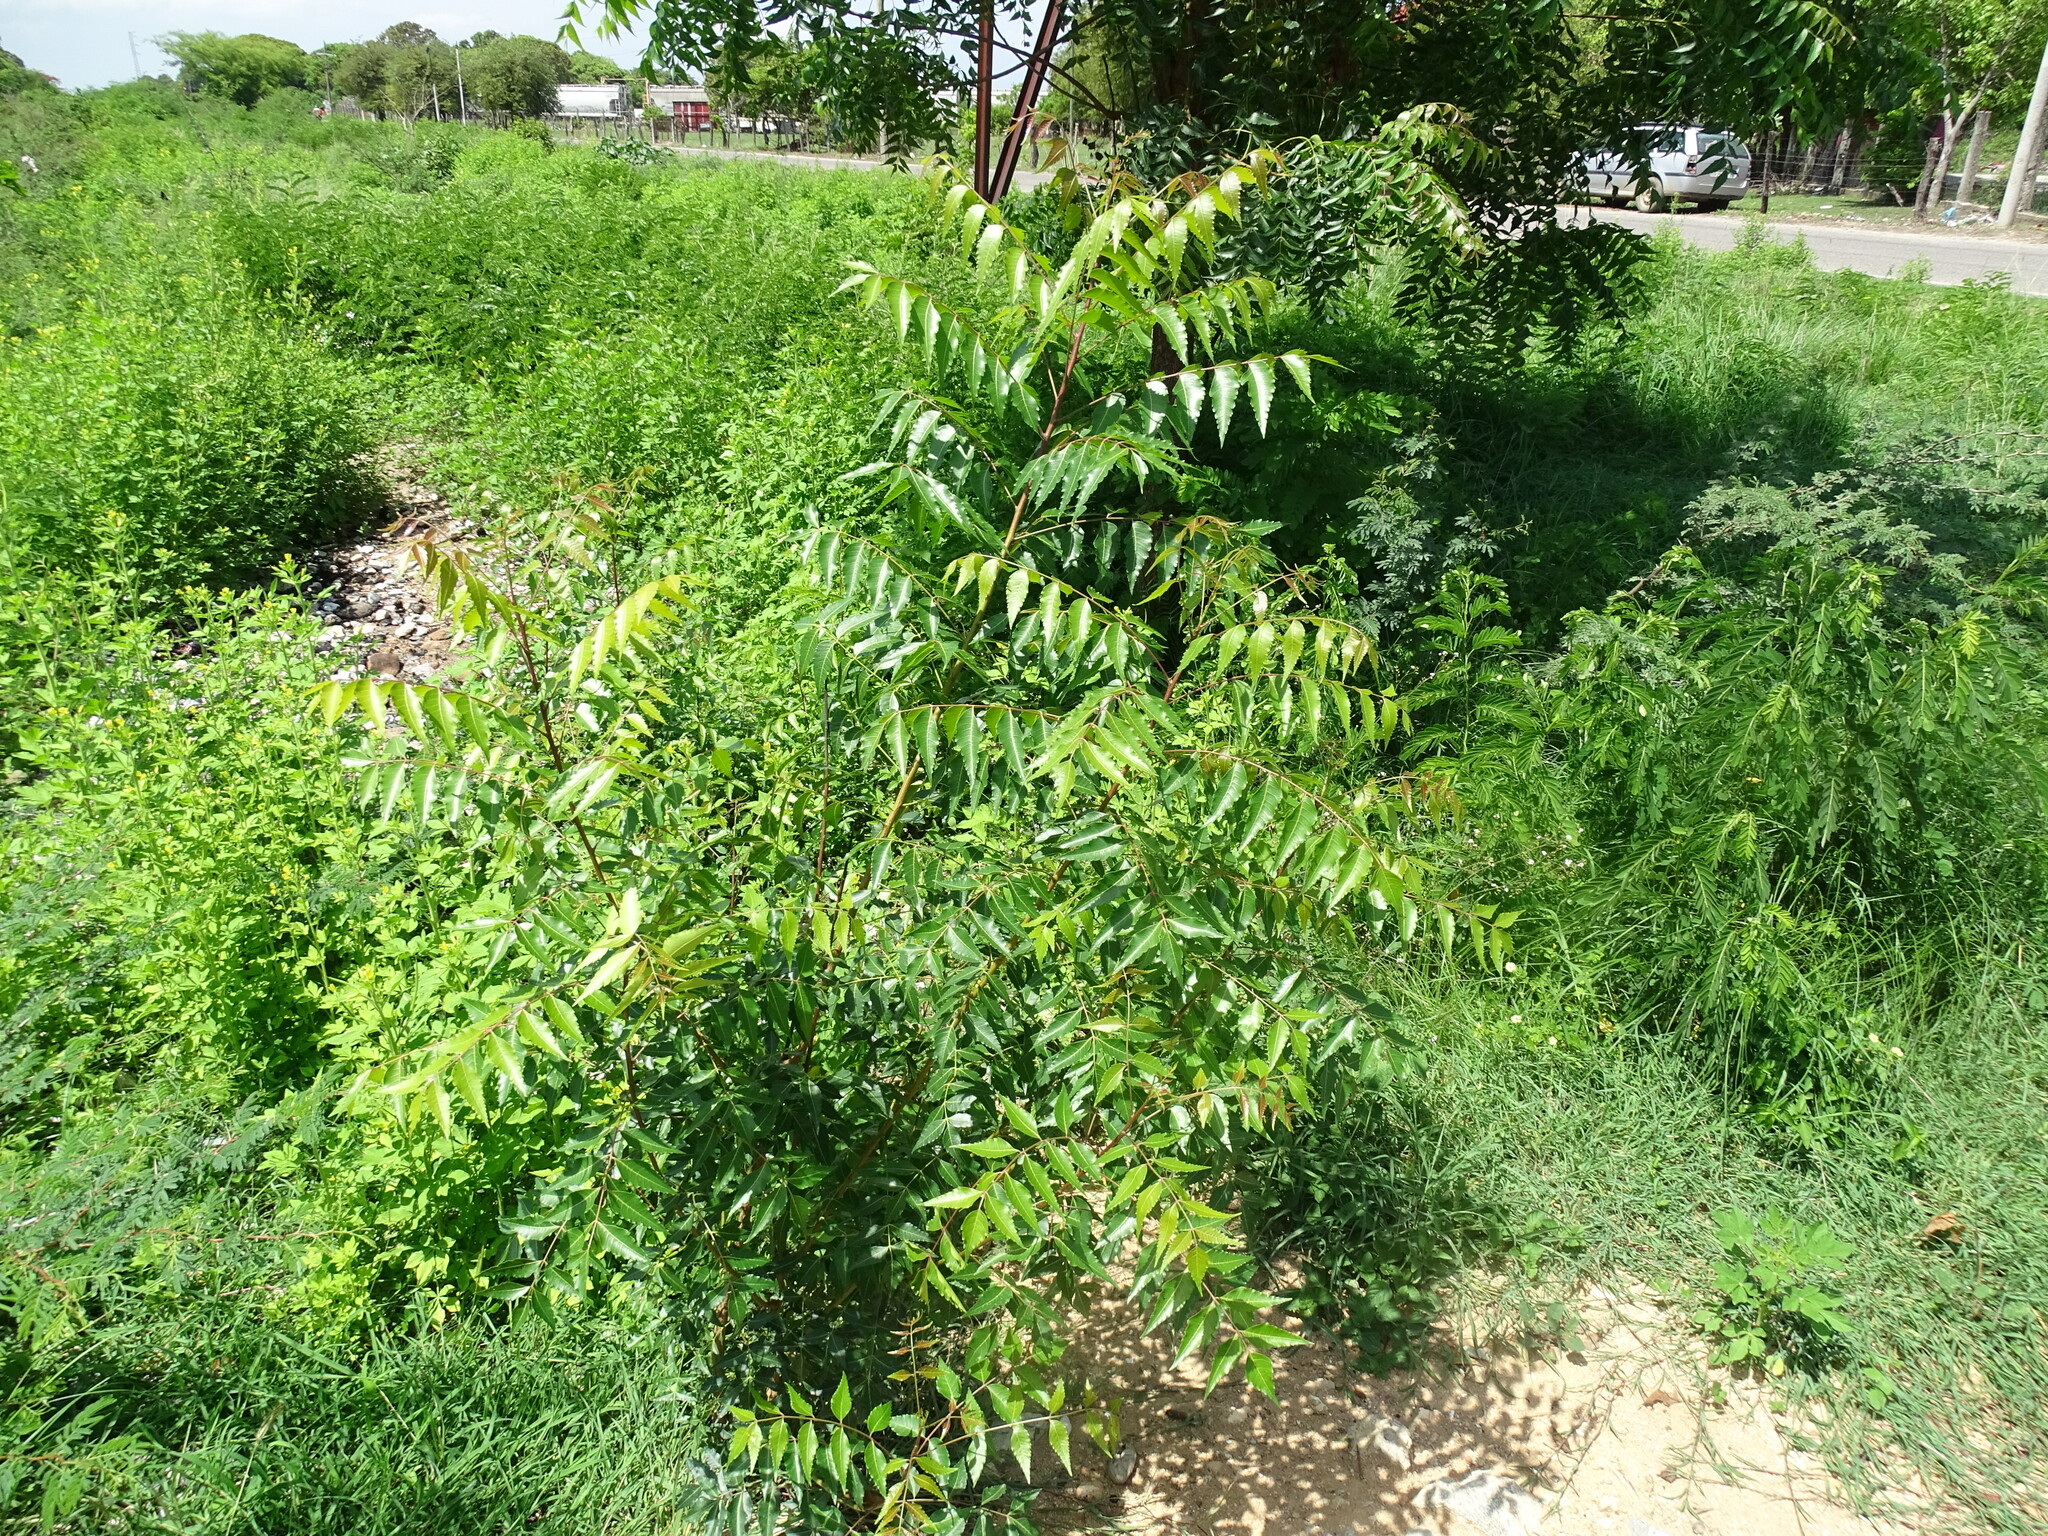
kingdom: Plantae
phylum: Tracheophyta
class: Magnoliopsida
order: Sapindales
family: Meliaceae
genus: Azadirachta
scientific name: Azadirachta indica
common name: Neem
